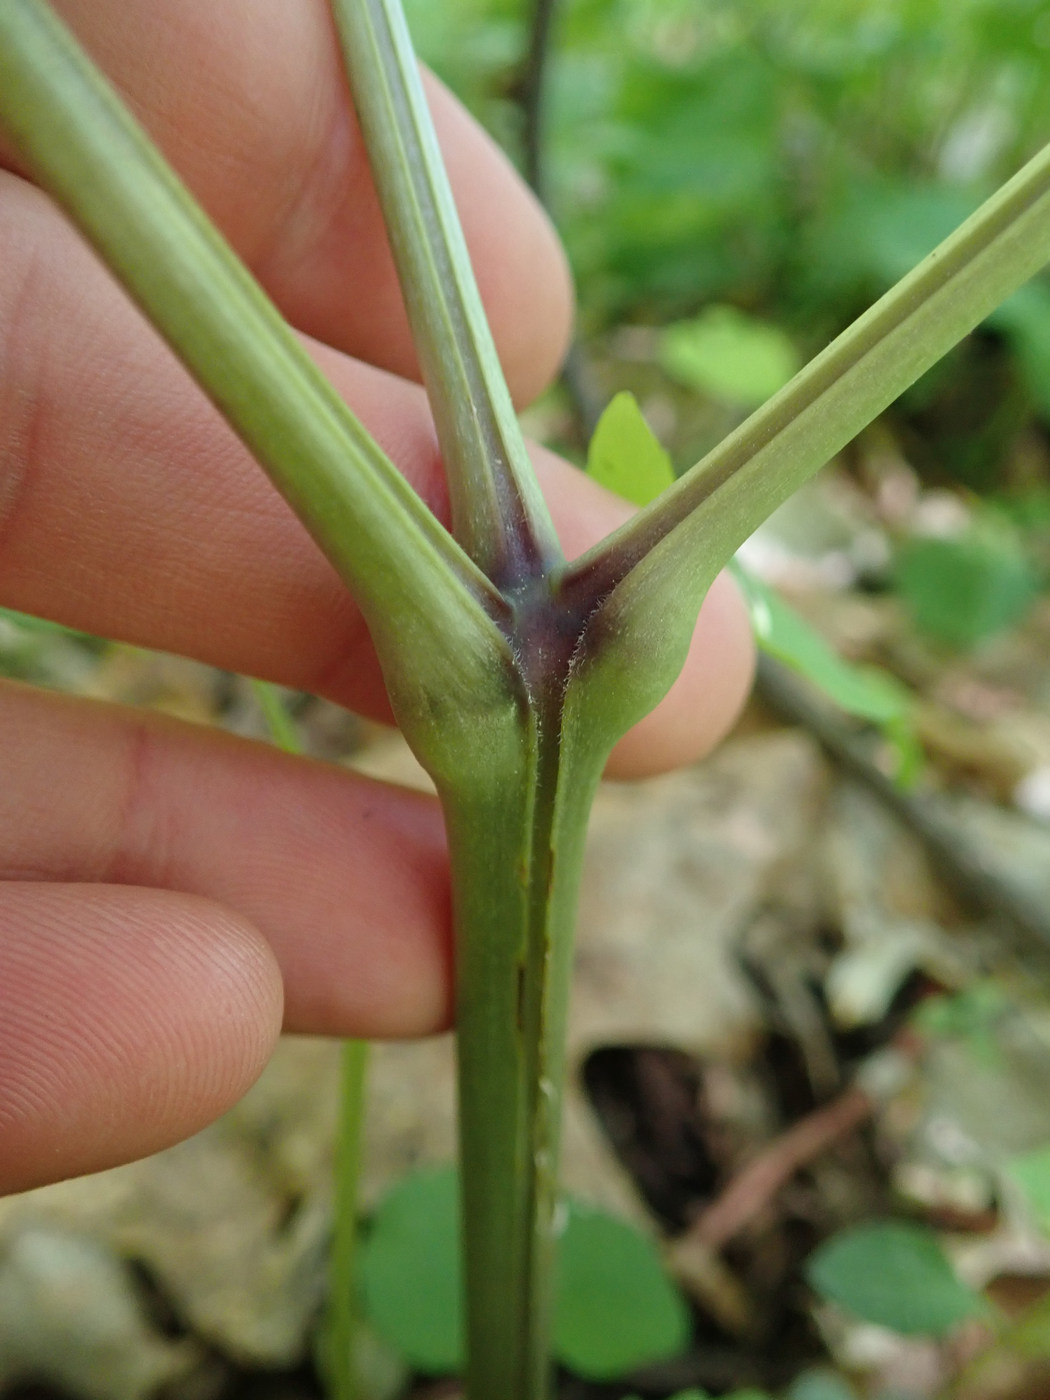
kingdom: Plantae
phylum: Tracheophyta
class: Magnoliopsida
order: Ranunculales
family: Ranunculaceae
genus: Actaea
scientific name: Actaea podocarpa
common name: American bugbane
